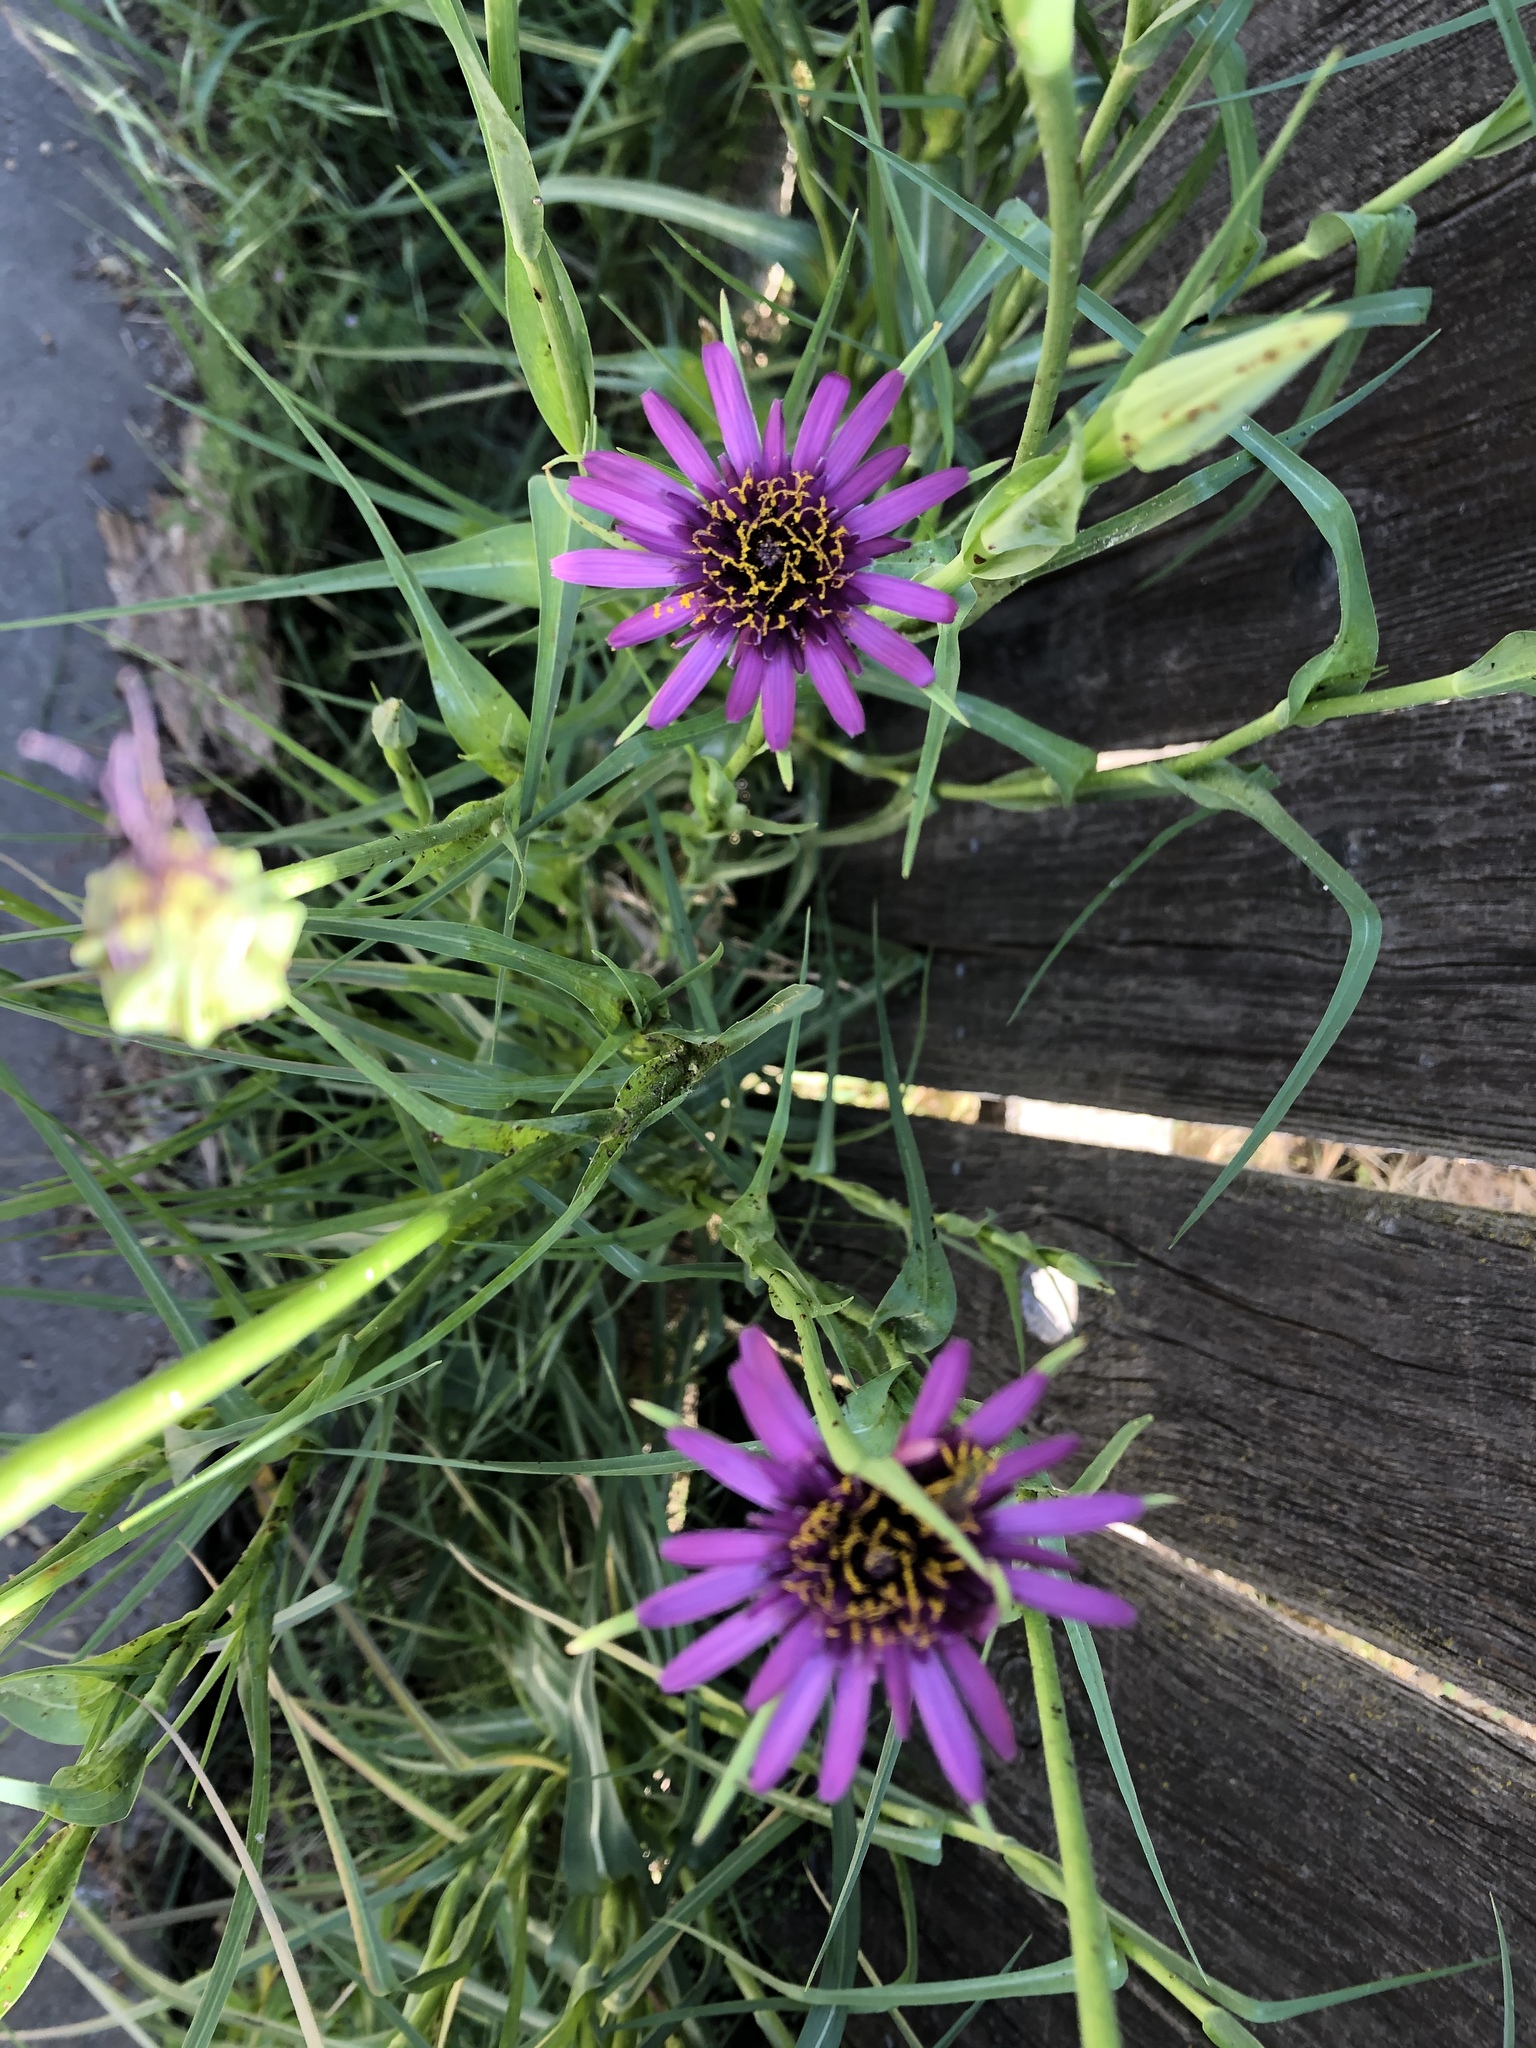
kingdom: Plantae
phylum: Tracheophyta
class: Magnoliopsida
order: Asterales
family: Asteraceae
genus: Tragopogon
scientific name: Tragopogon porrifolius
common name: Salsify
